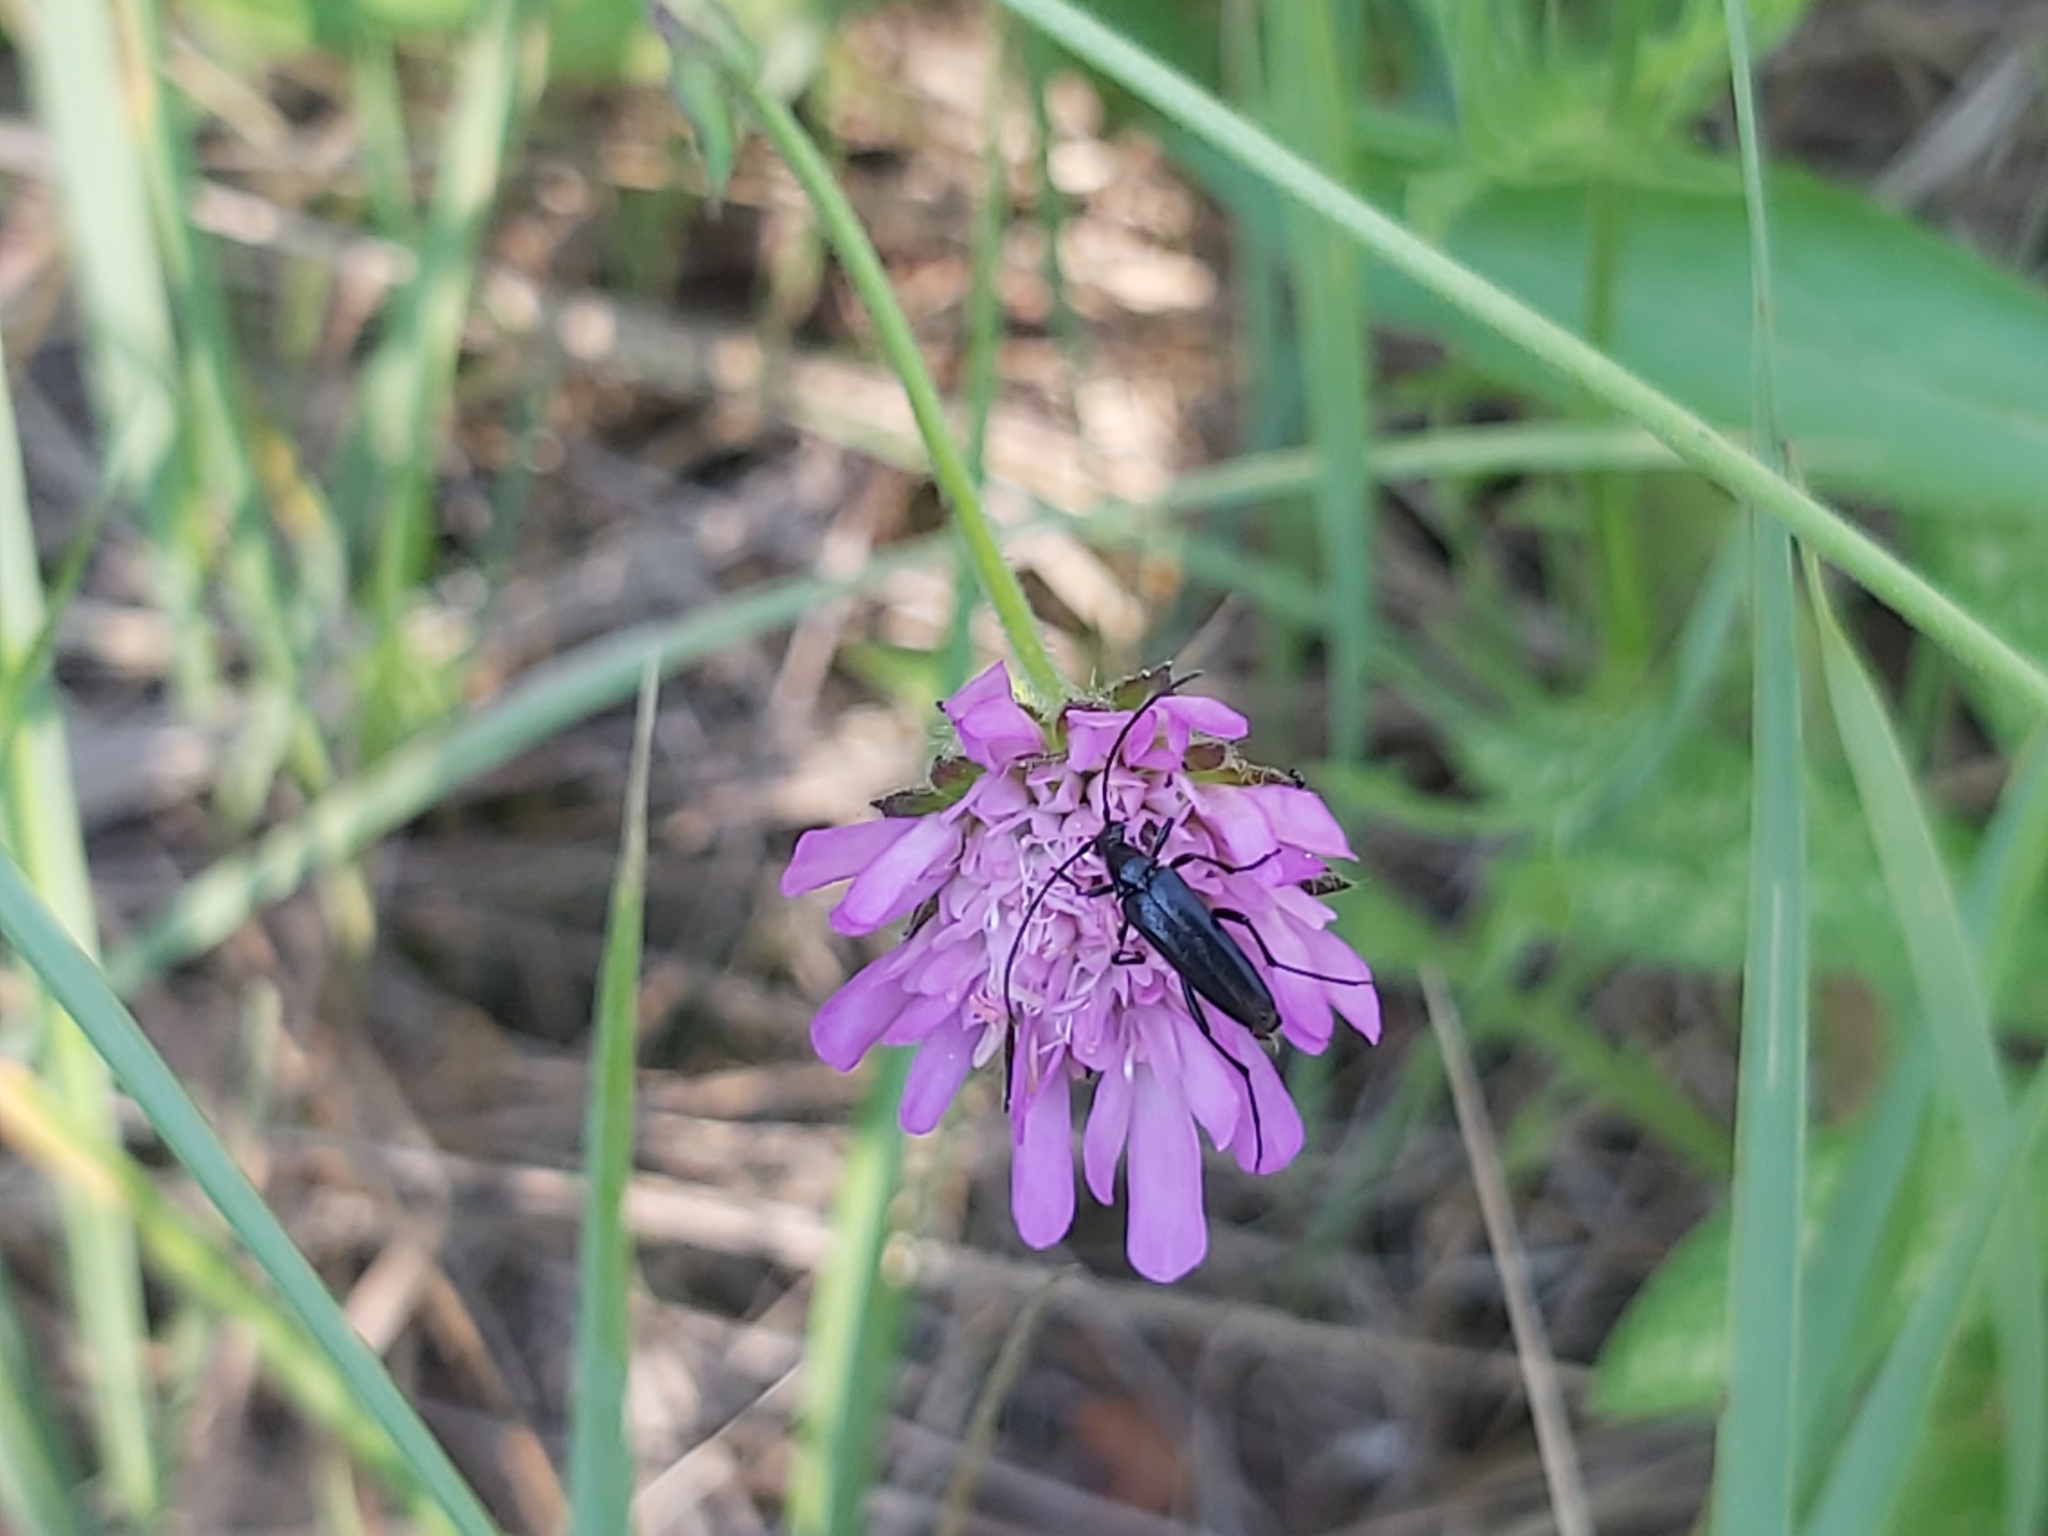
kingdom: Animalia
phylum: Arthropoda
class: Insecta
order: Coleoptera
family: Cerambycidae
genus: Stenurella
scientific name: Stenurella nigra
